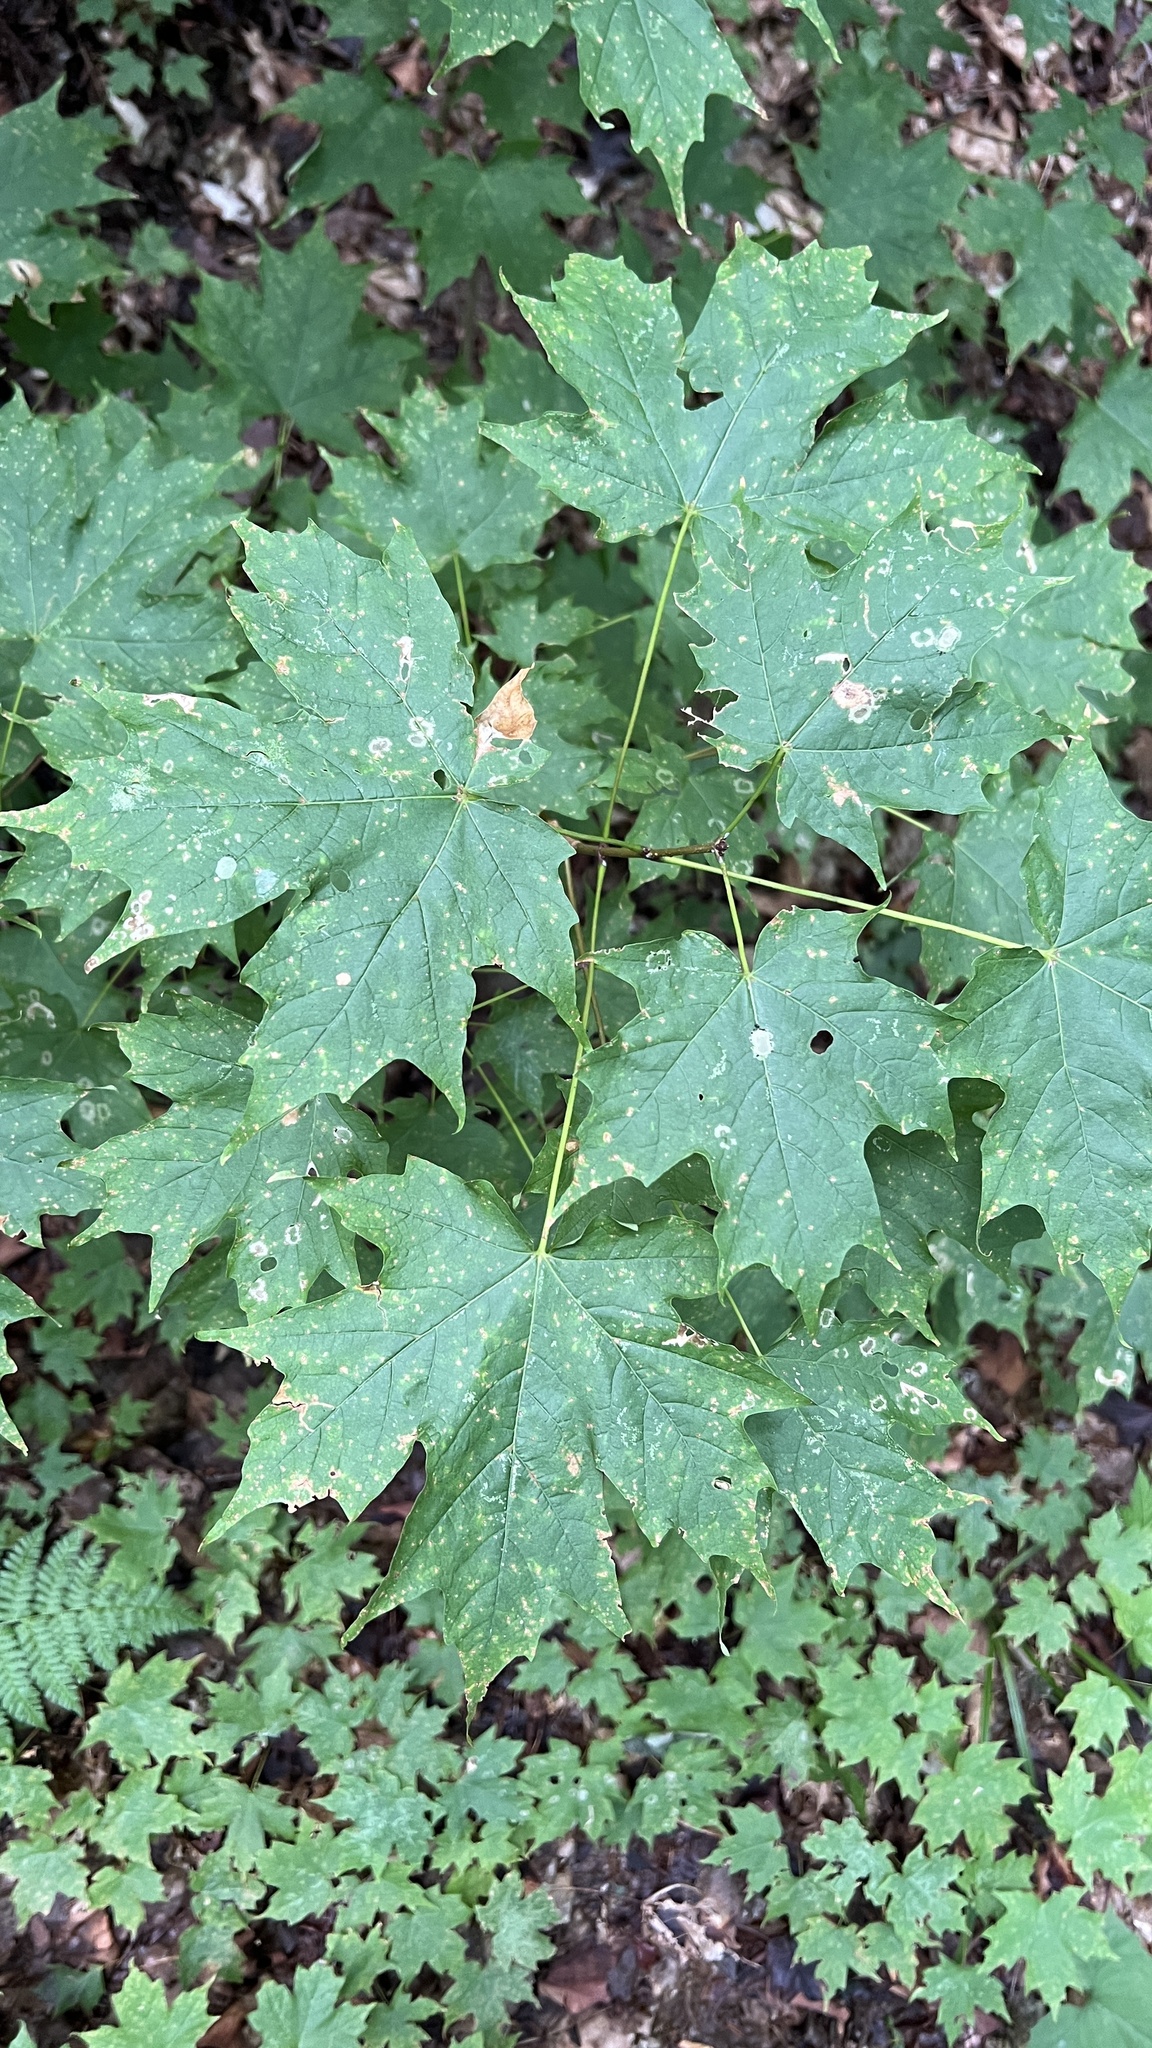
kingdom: Plantae
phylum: Tracheophyta
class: Magnoliopsida
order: Sapindales
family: Sapindaceae
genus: Acer
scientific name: Acer saccharum
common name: Sugar maple
